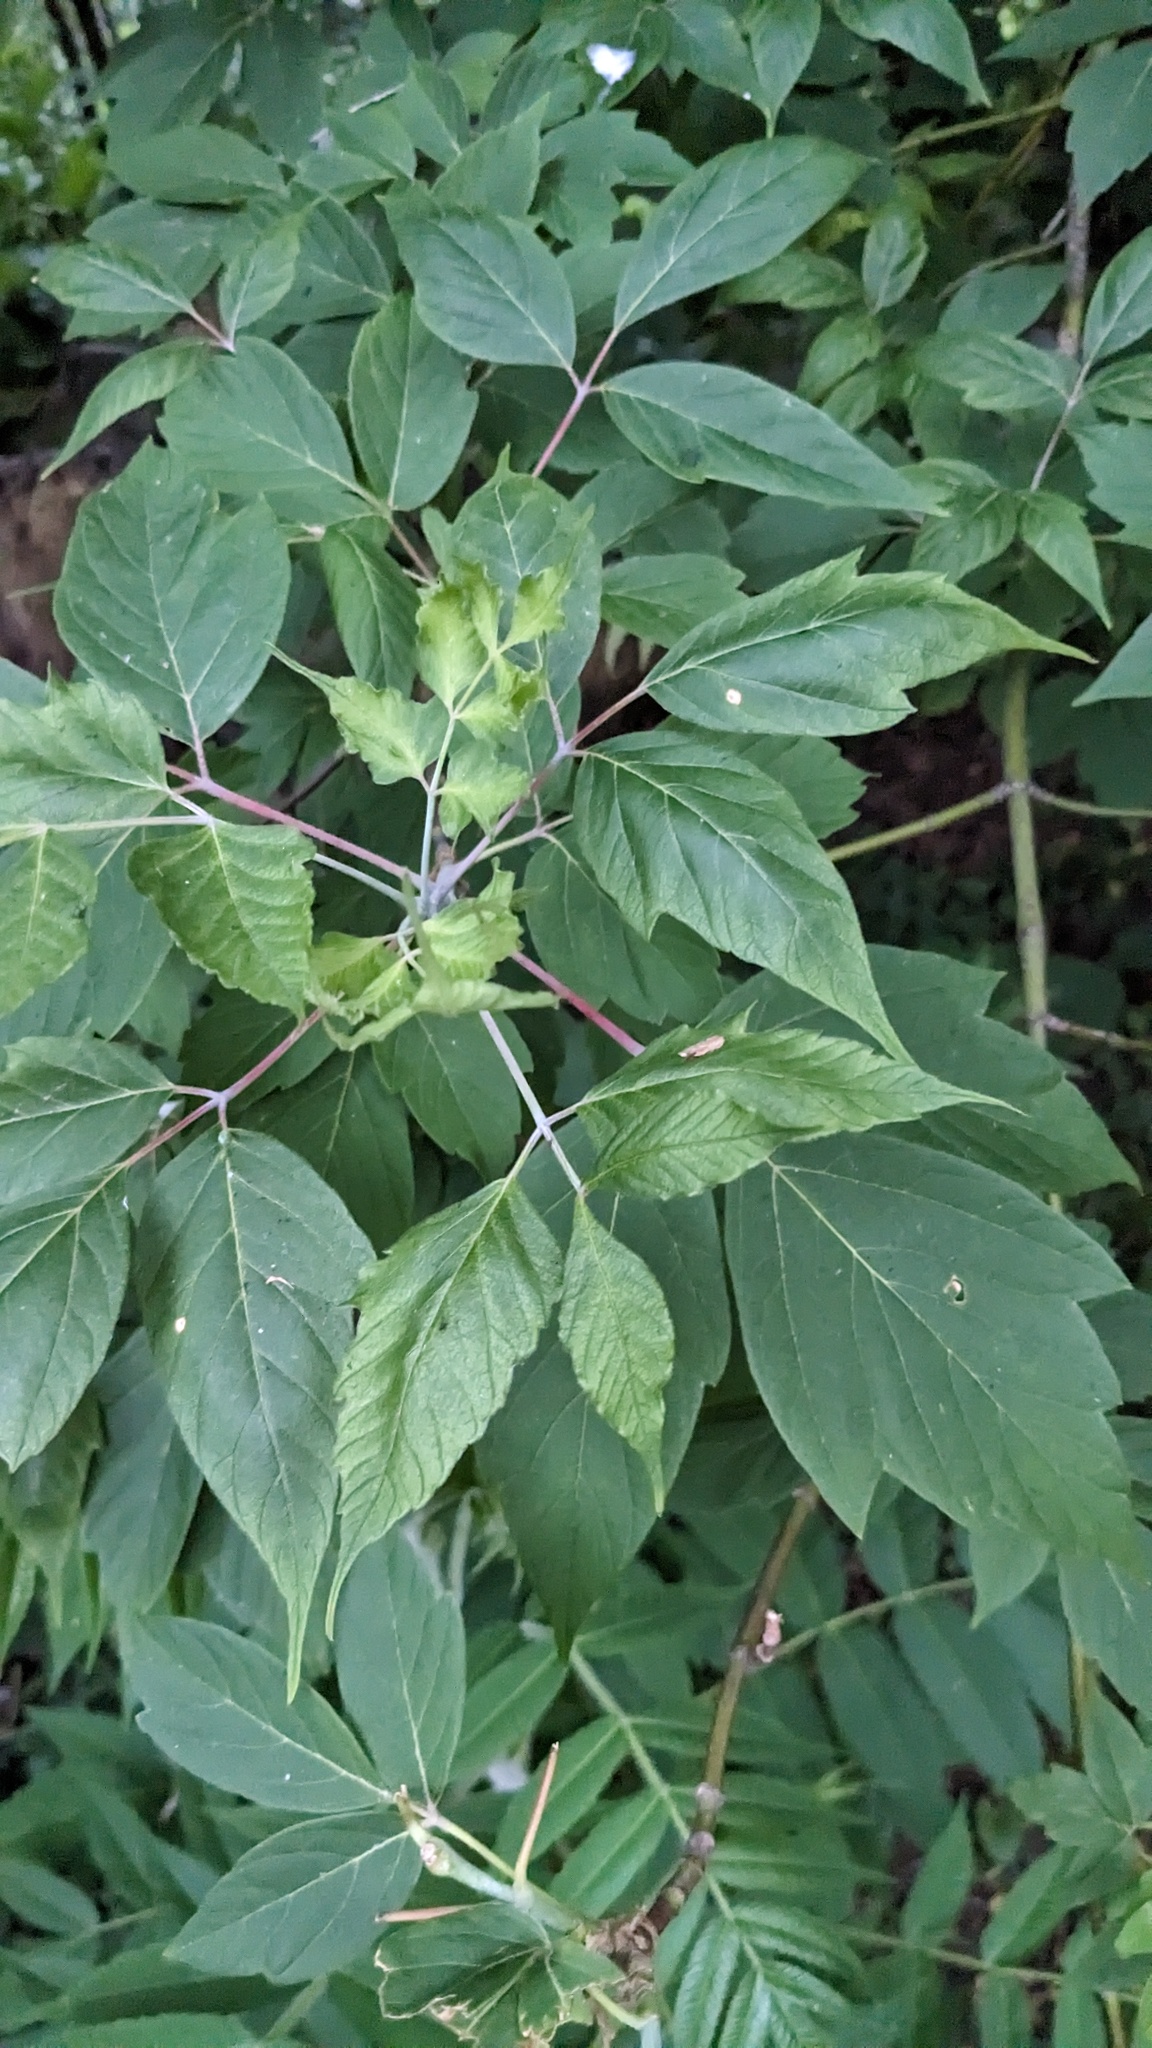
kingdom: Plantae
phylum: Tracheophyta
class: Magnoliopsida
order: Sapindales
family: Sapindaceae
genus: Acer
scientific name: Acer negundo
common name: Ashleaf maple
